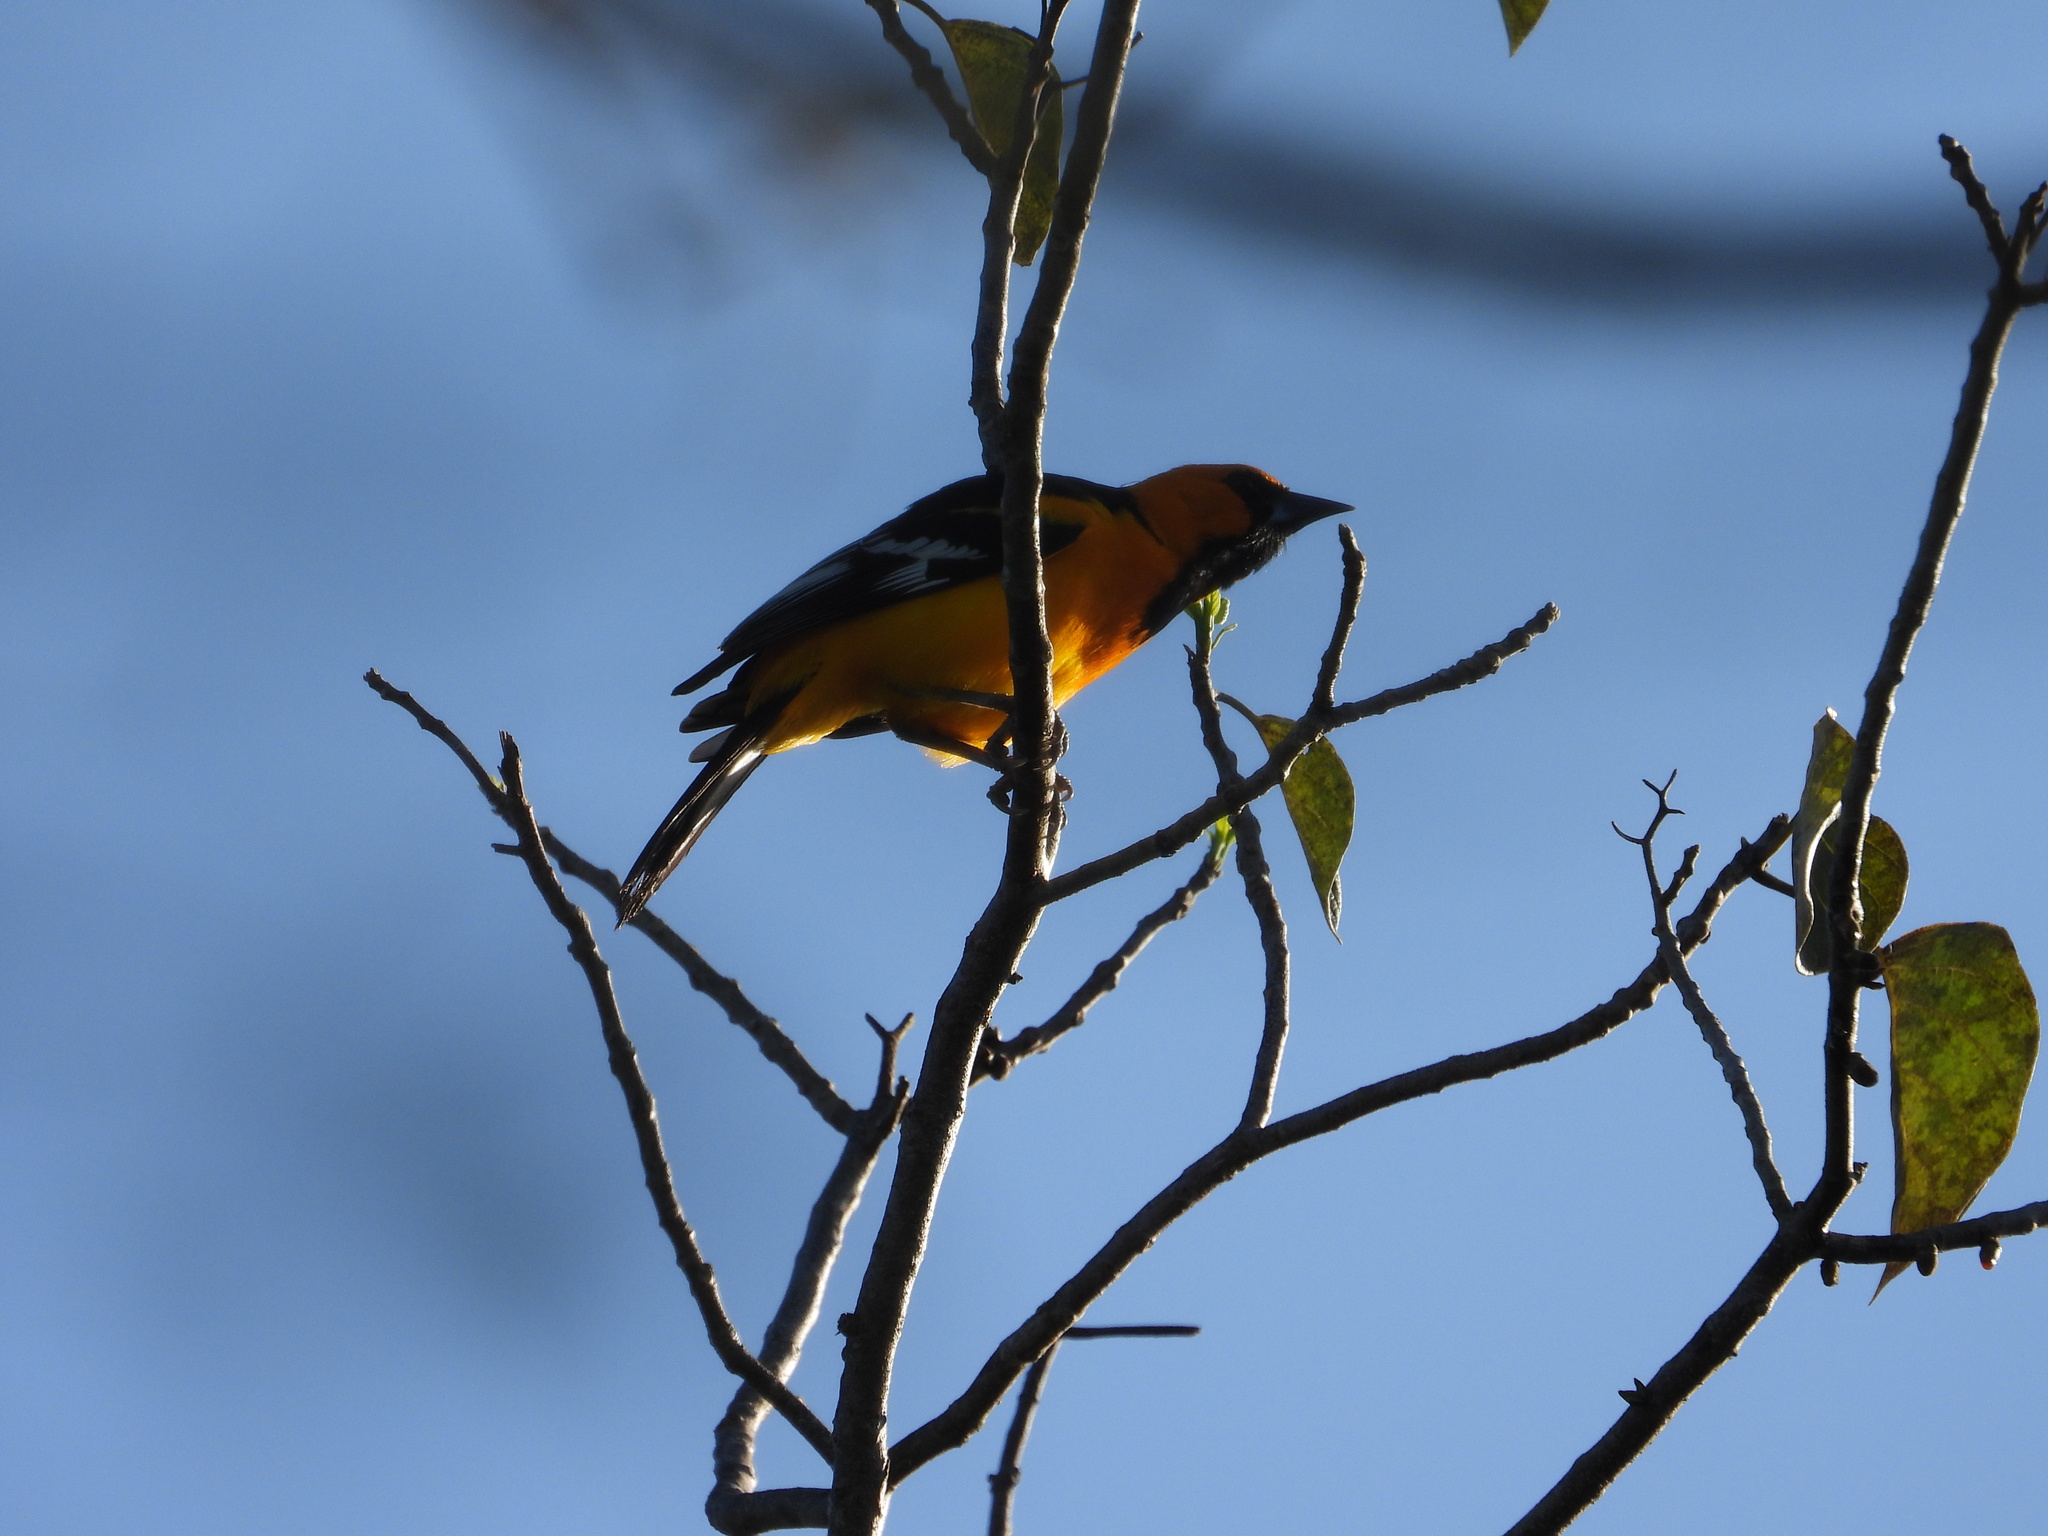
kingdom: Animalia
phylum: Chordata
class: Aves
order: Passeriformes
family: Icteridae
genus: Icterus
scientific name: Icterus gularis
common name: Altamira oriole
